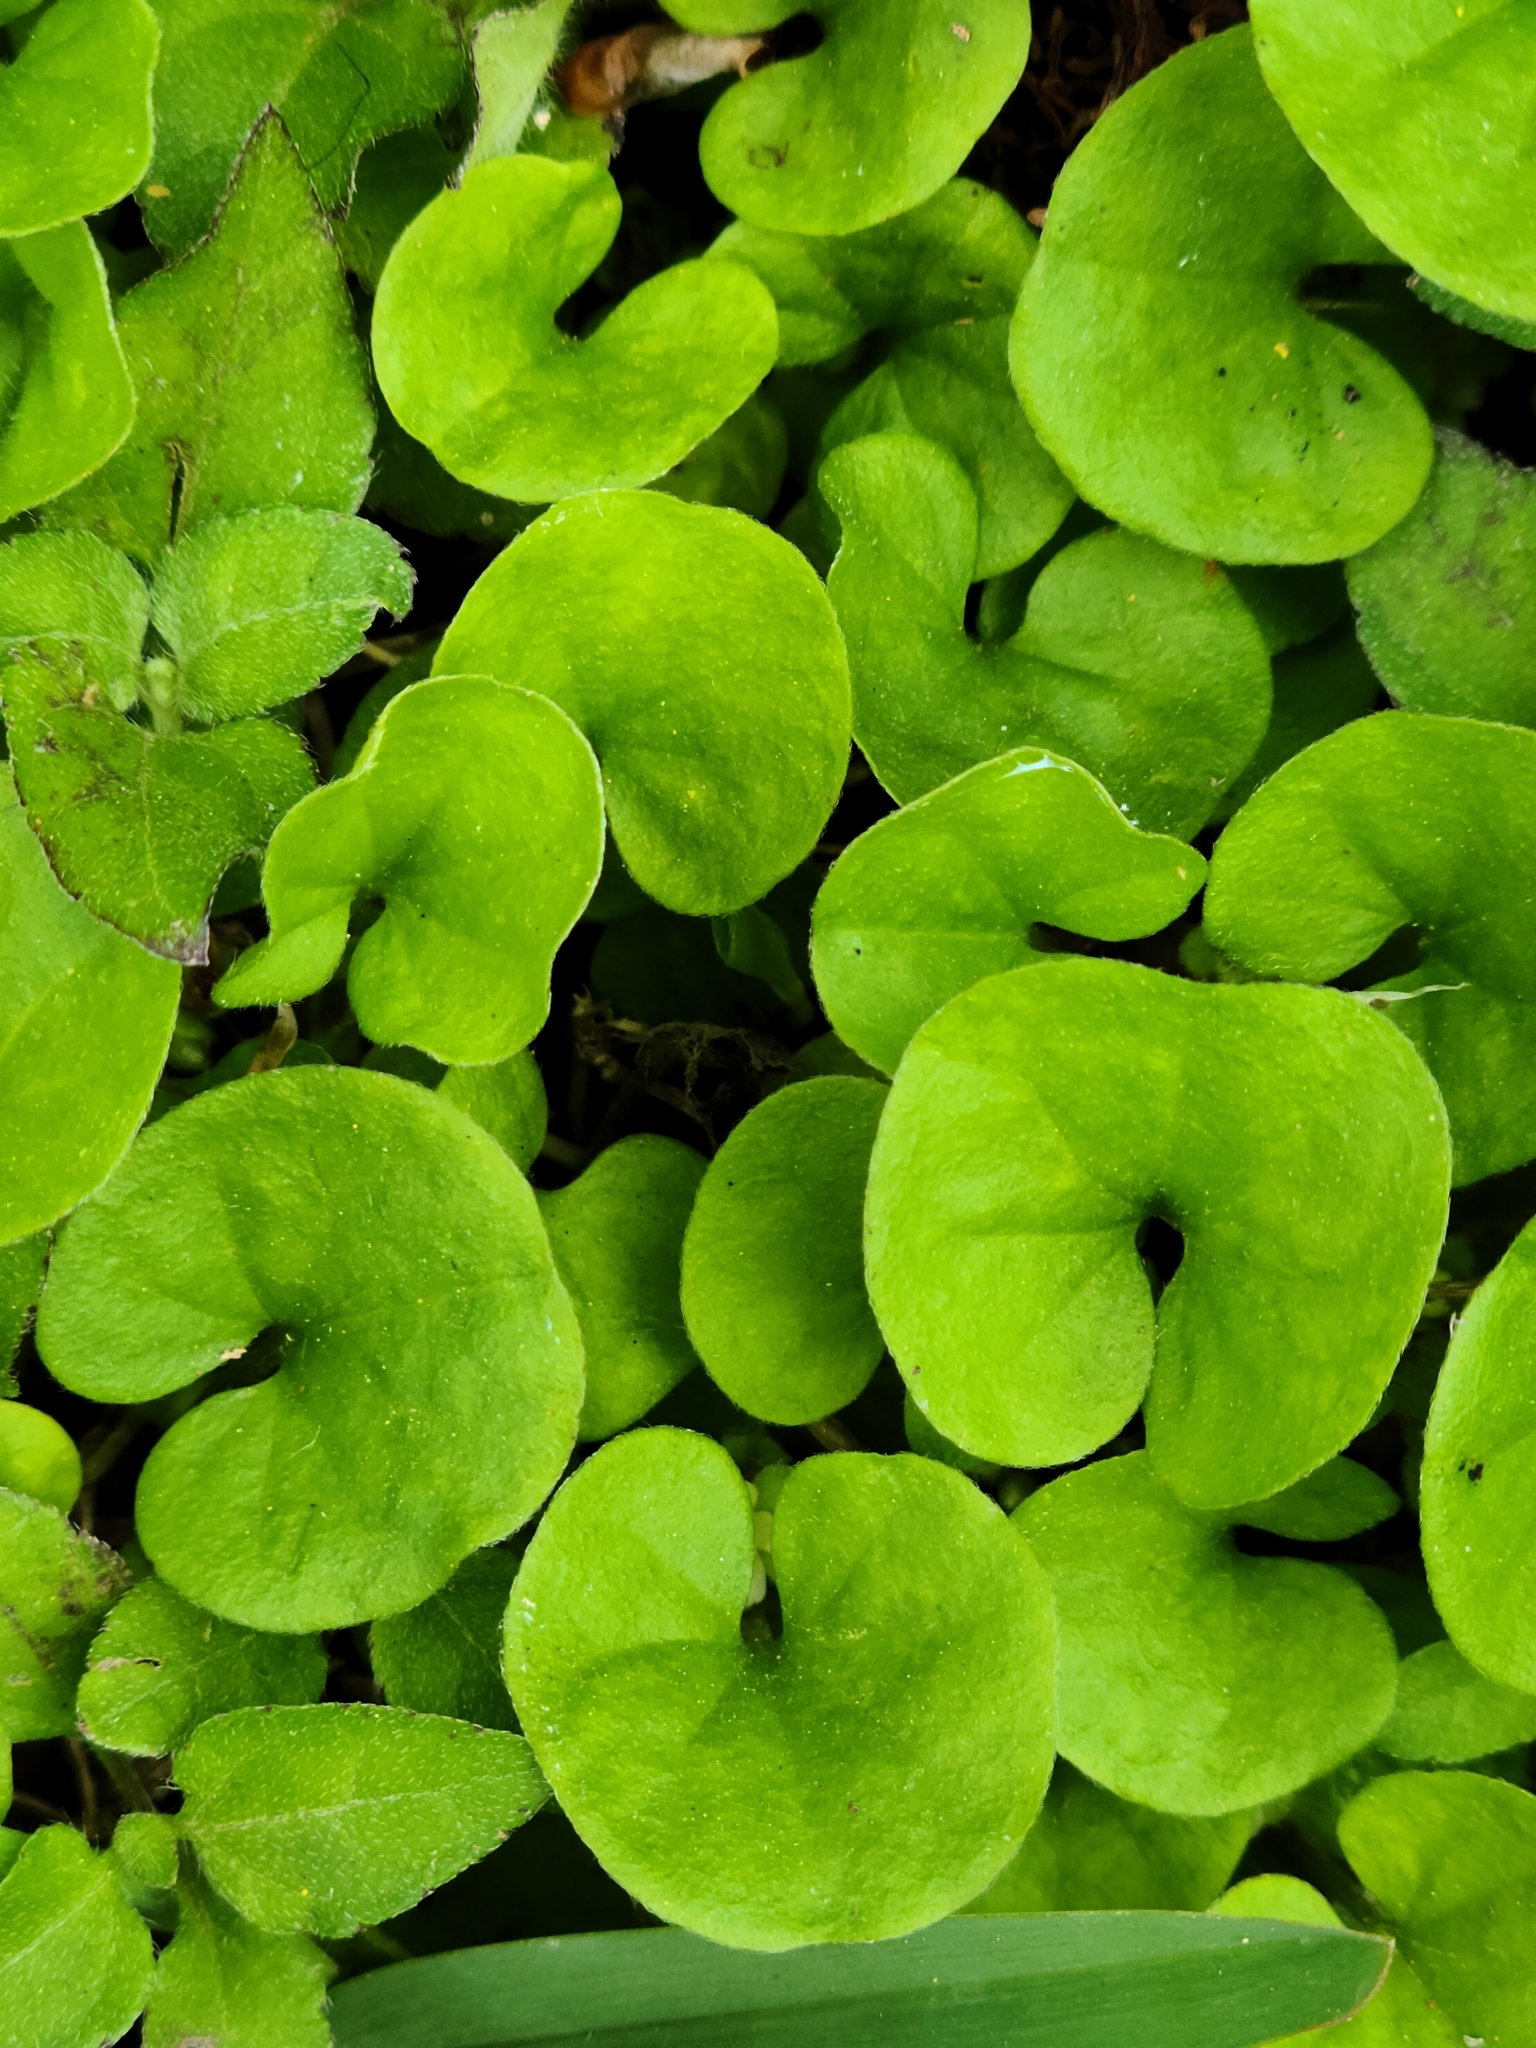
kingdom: Plantae
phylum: Tracheophyta
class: Magnoliopsida
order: Solanales
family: Convolvulaceae
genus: Dichondra
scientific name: Dichondra carolinensis
